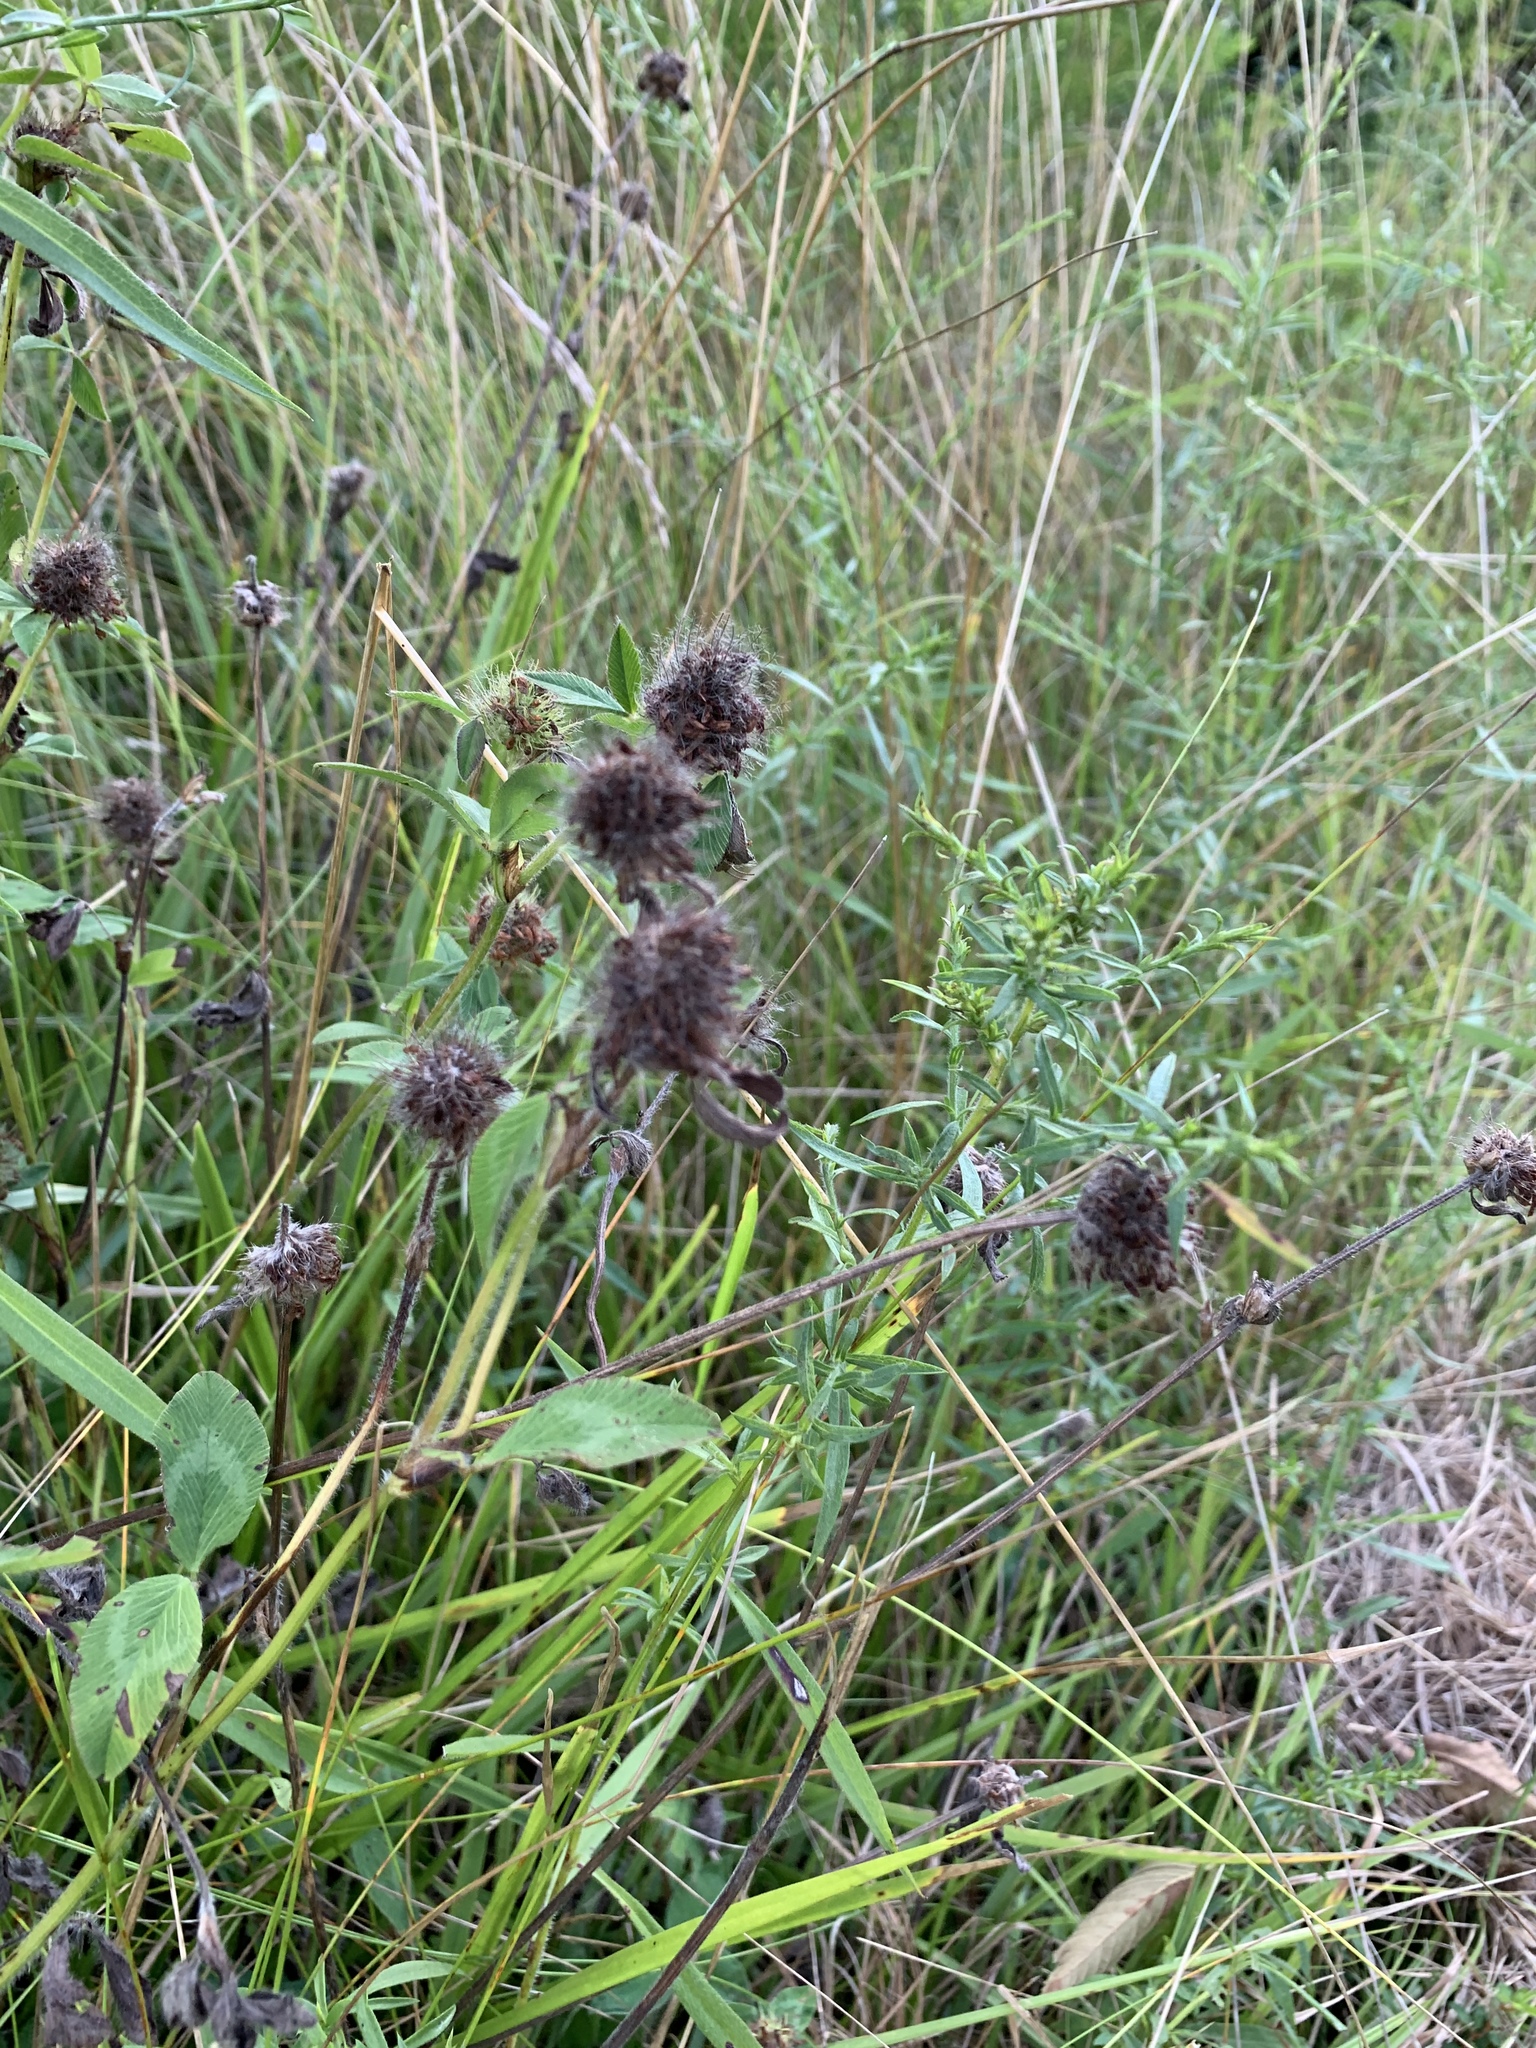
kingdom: Plantae
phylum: Tracheophyta
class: Magnoliopsida
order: Fabales
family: Fabaceae
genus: Trifolium
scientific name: Trifolium pratense
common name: Red clover
